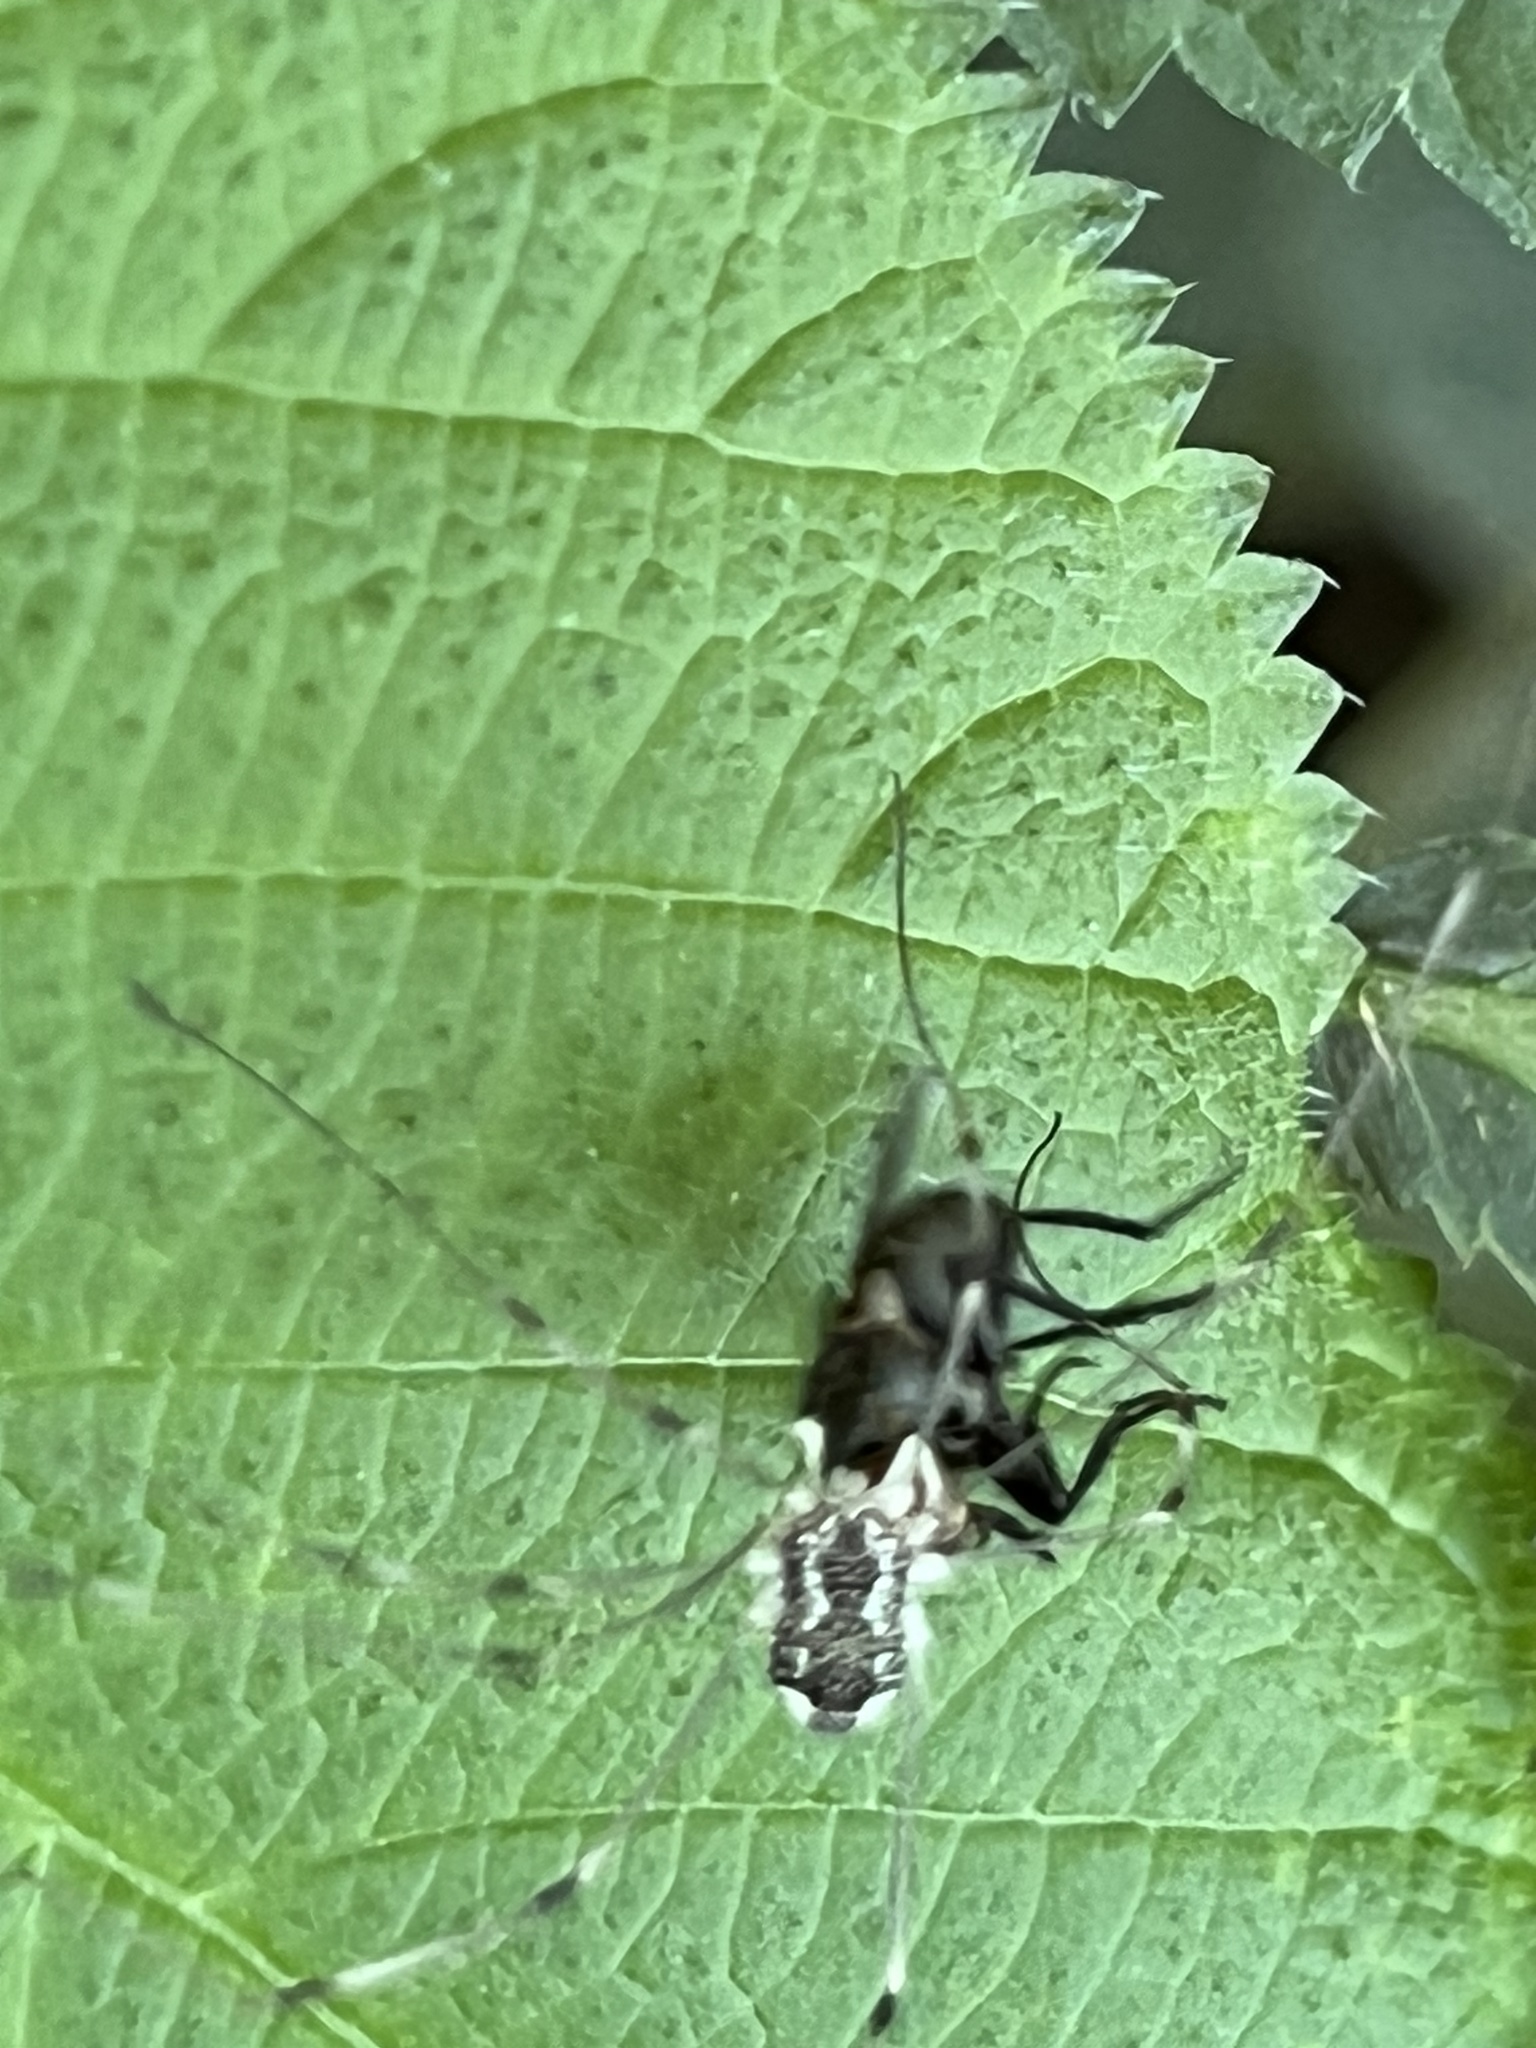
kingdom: Animalia
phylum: Arthropoda
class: Arachnida
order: Opiliones
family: Sclerosomatidae
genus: Leiobunum
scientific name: Leiobunum vittatum
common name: Eastern harvestman
